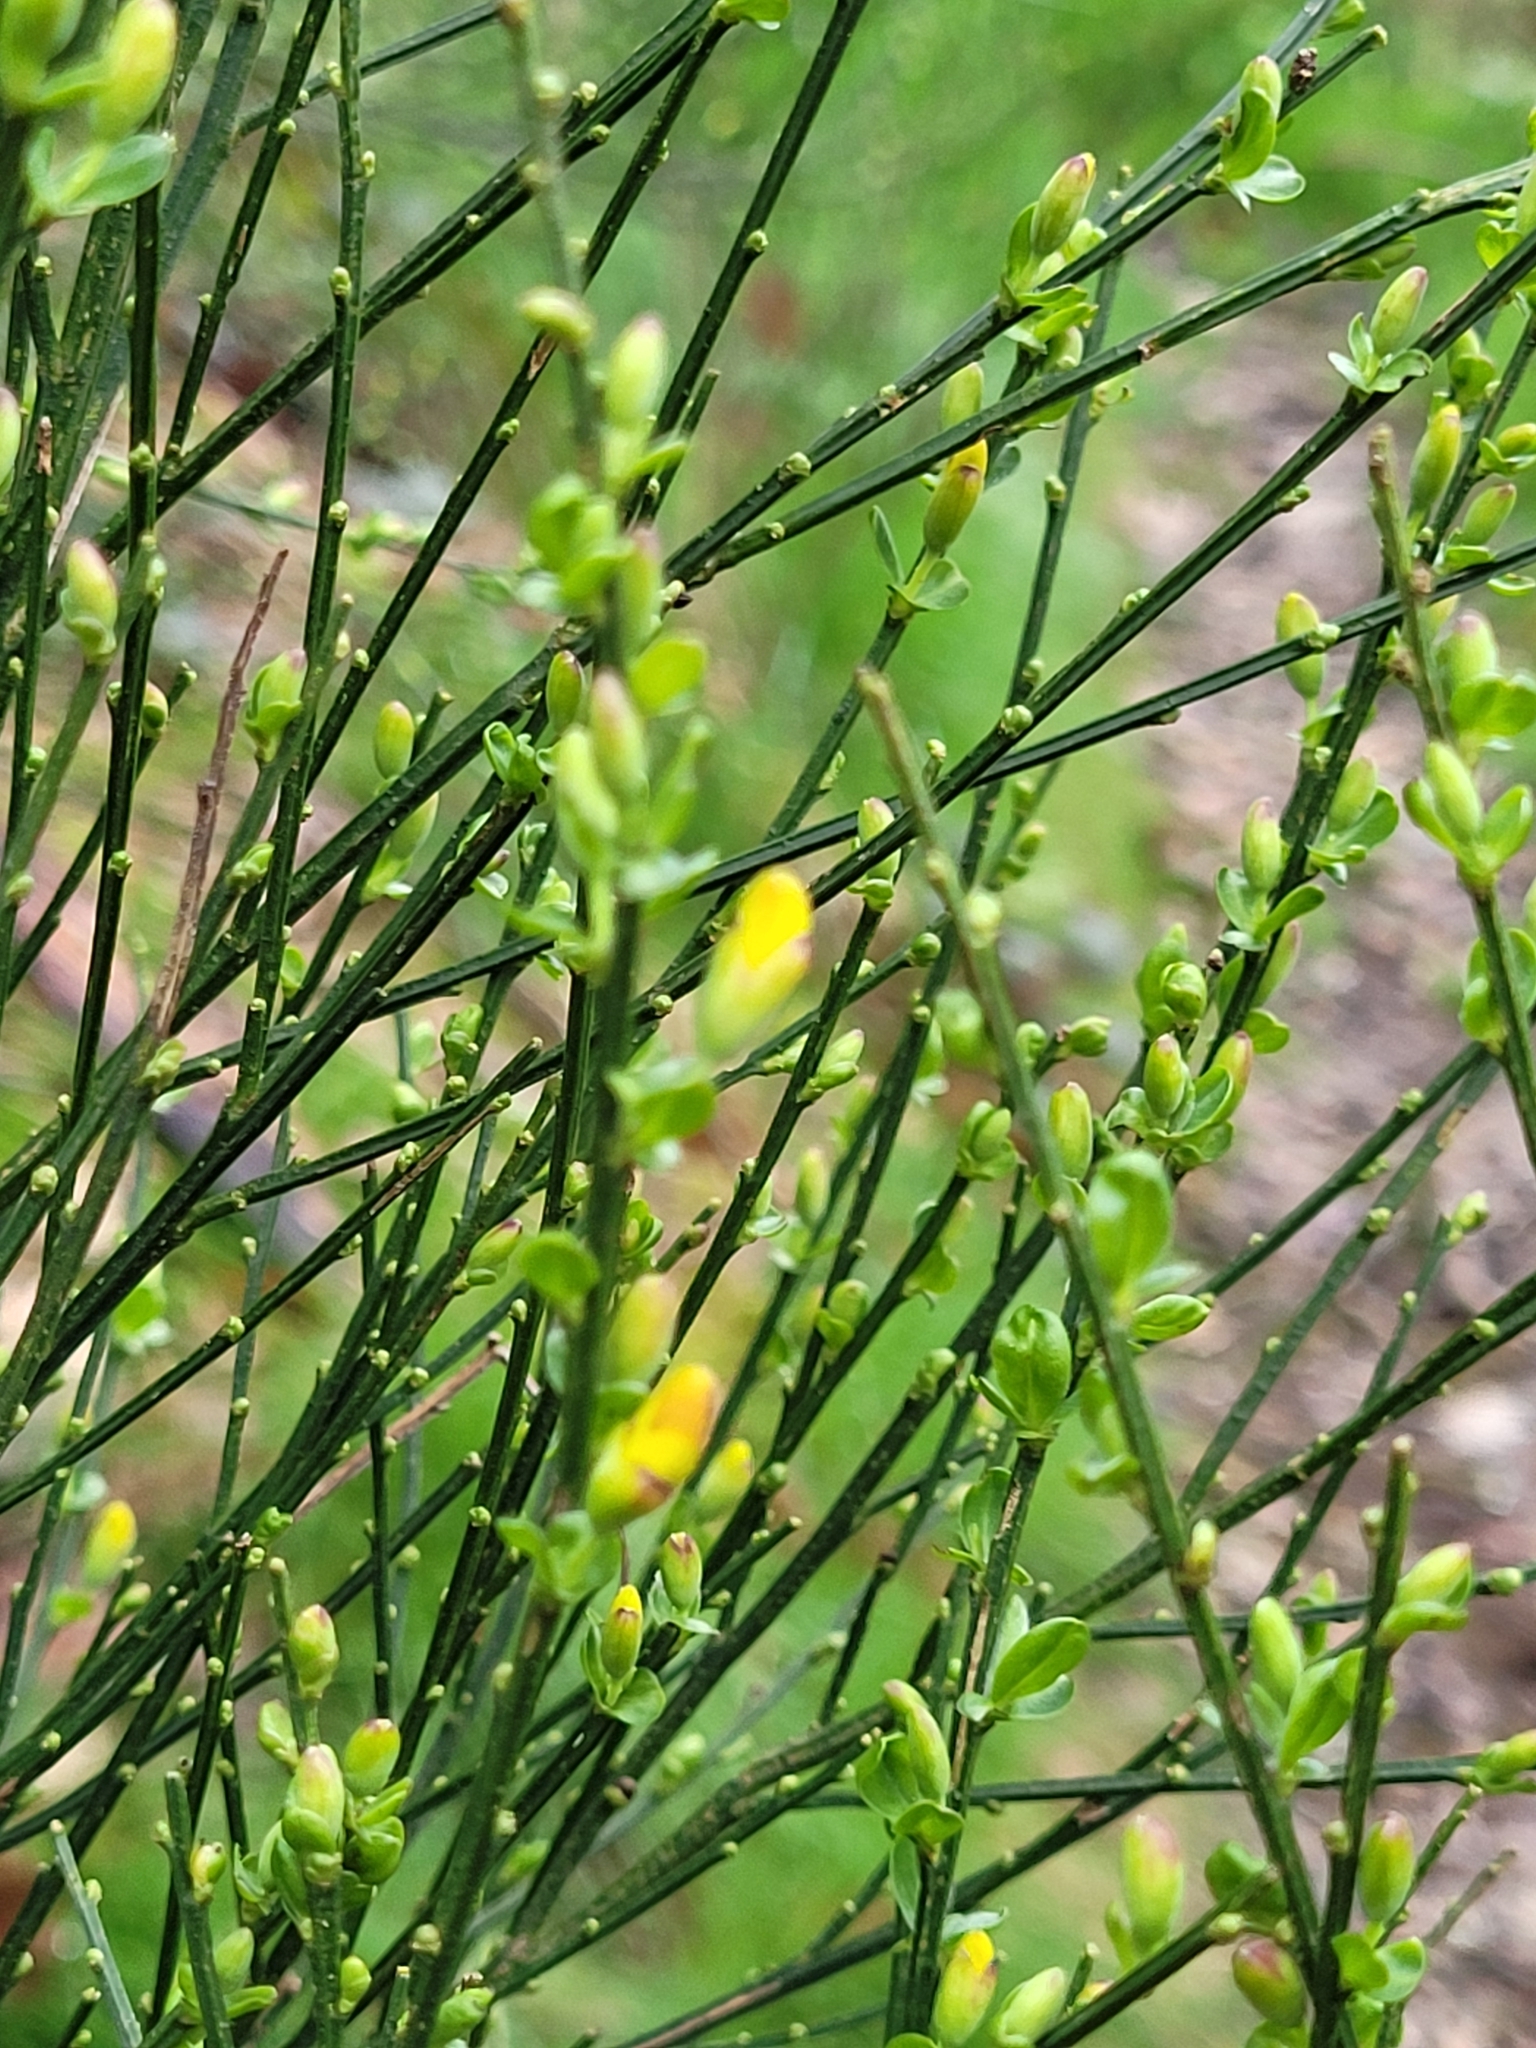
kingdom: Plantae
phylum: Tracheophyta
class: Magnoliopsida
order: Fabales
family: Fabaceae
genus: Cytisus
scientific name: Cytisus scoparius
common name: Scotch broom
